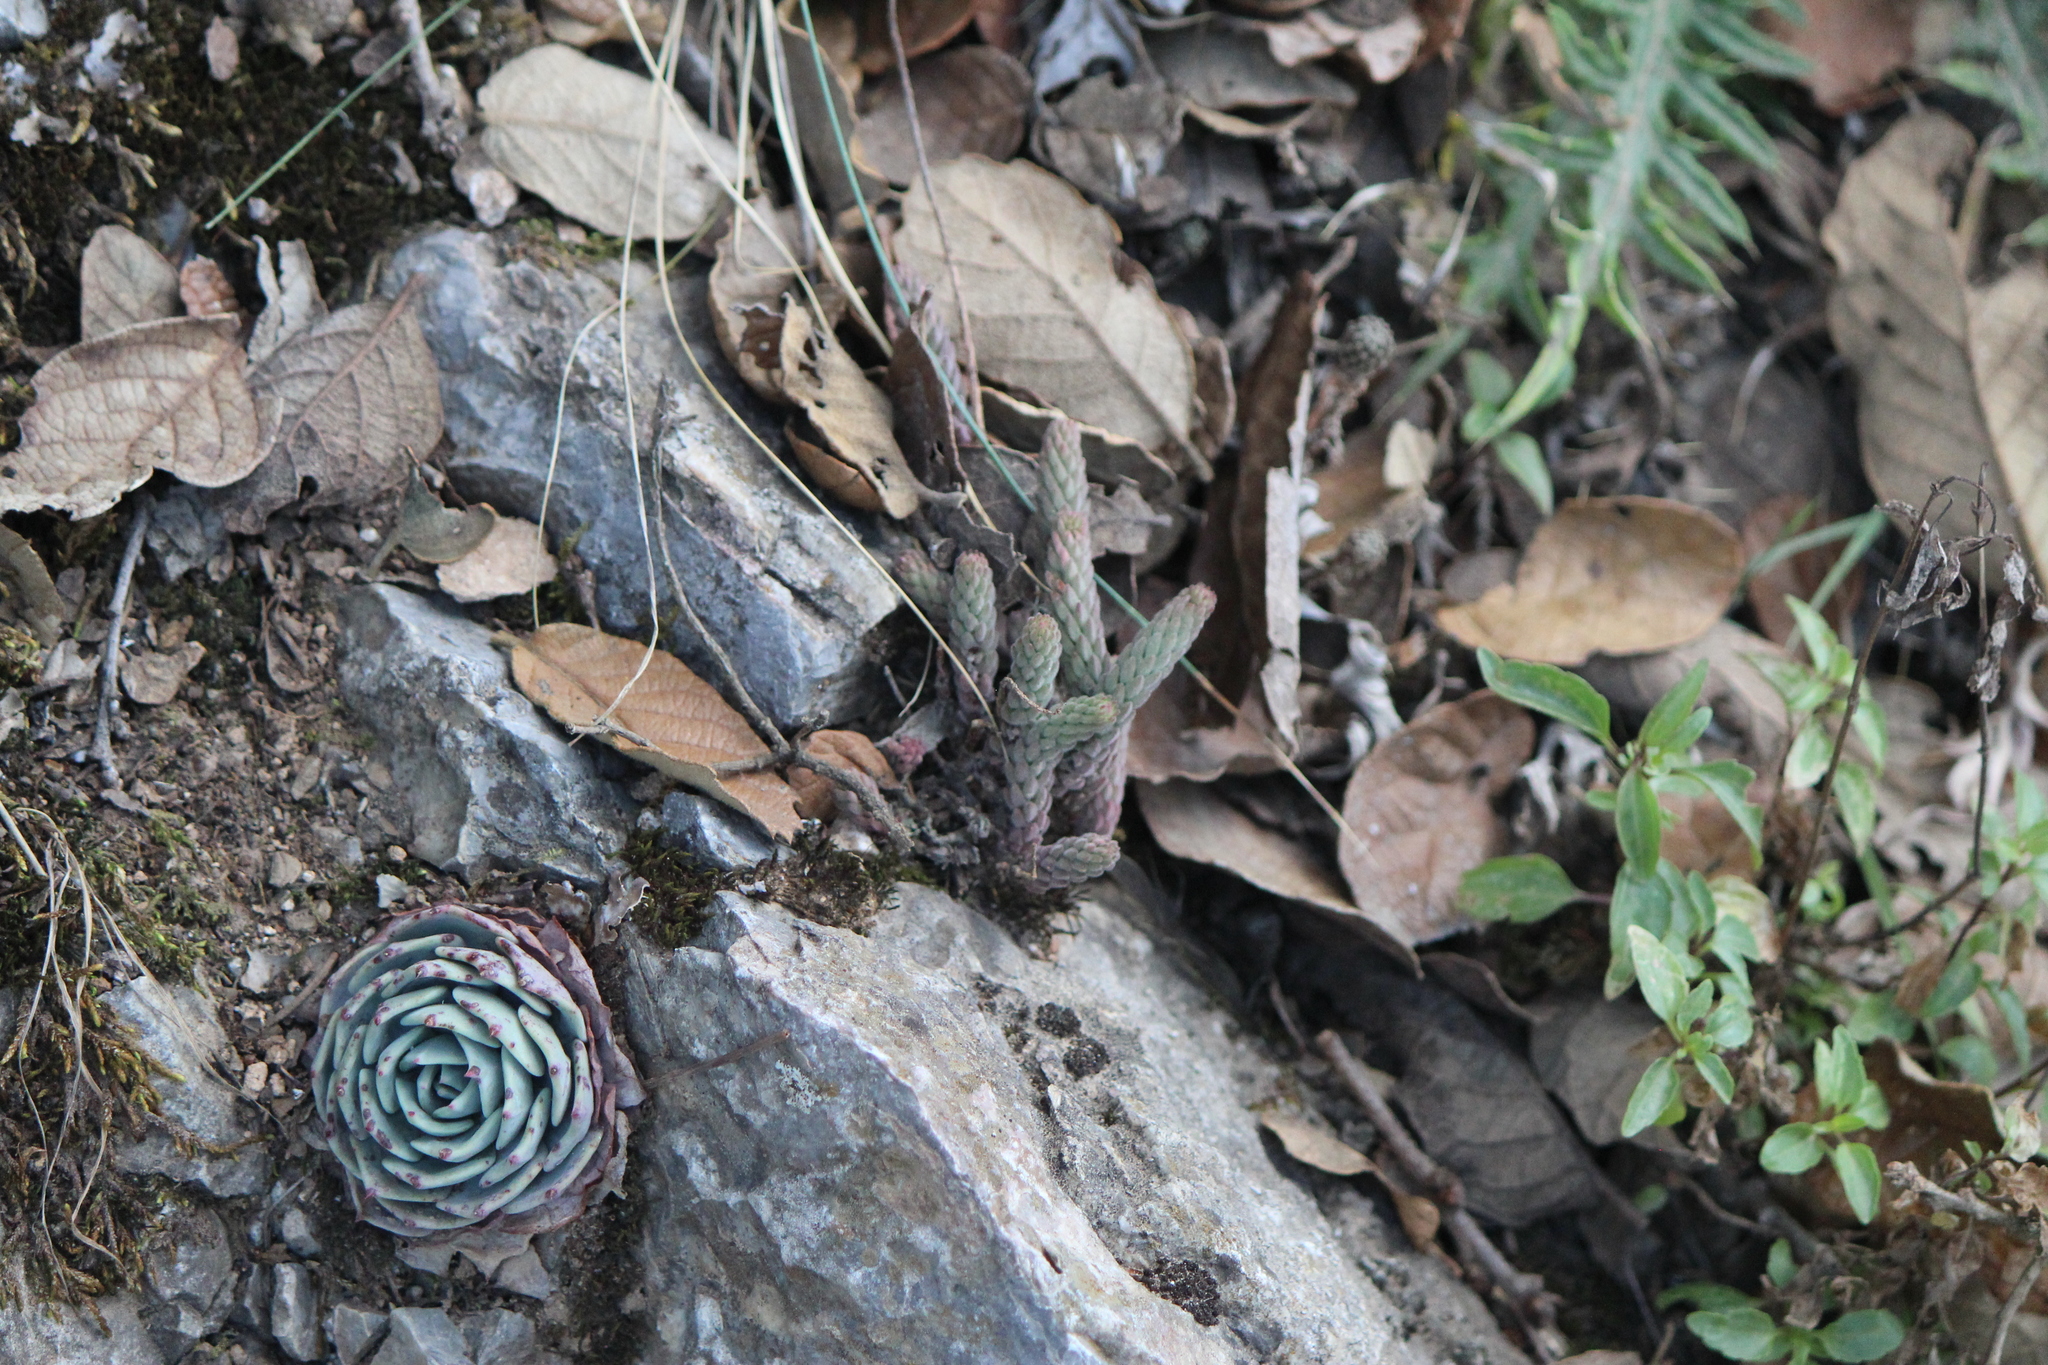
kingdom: Plantae
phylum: Tracheophyta
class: Magnoliopsida
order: Saxifragales
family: Crassulaceae
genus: Sedum
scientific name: Sedum jurgensenii
